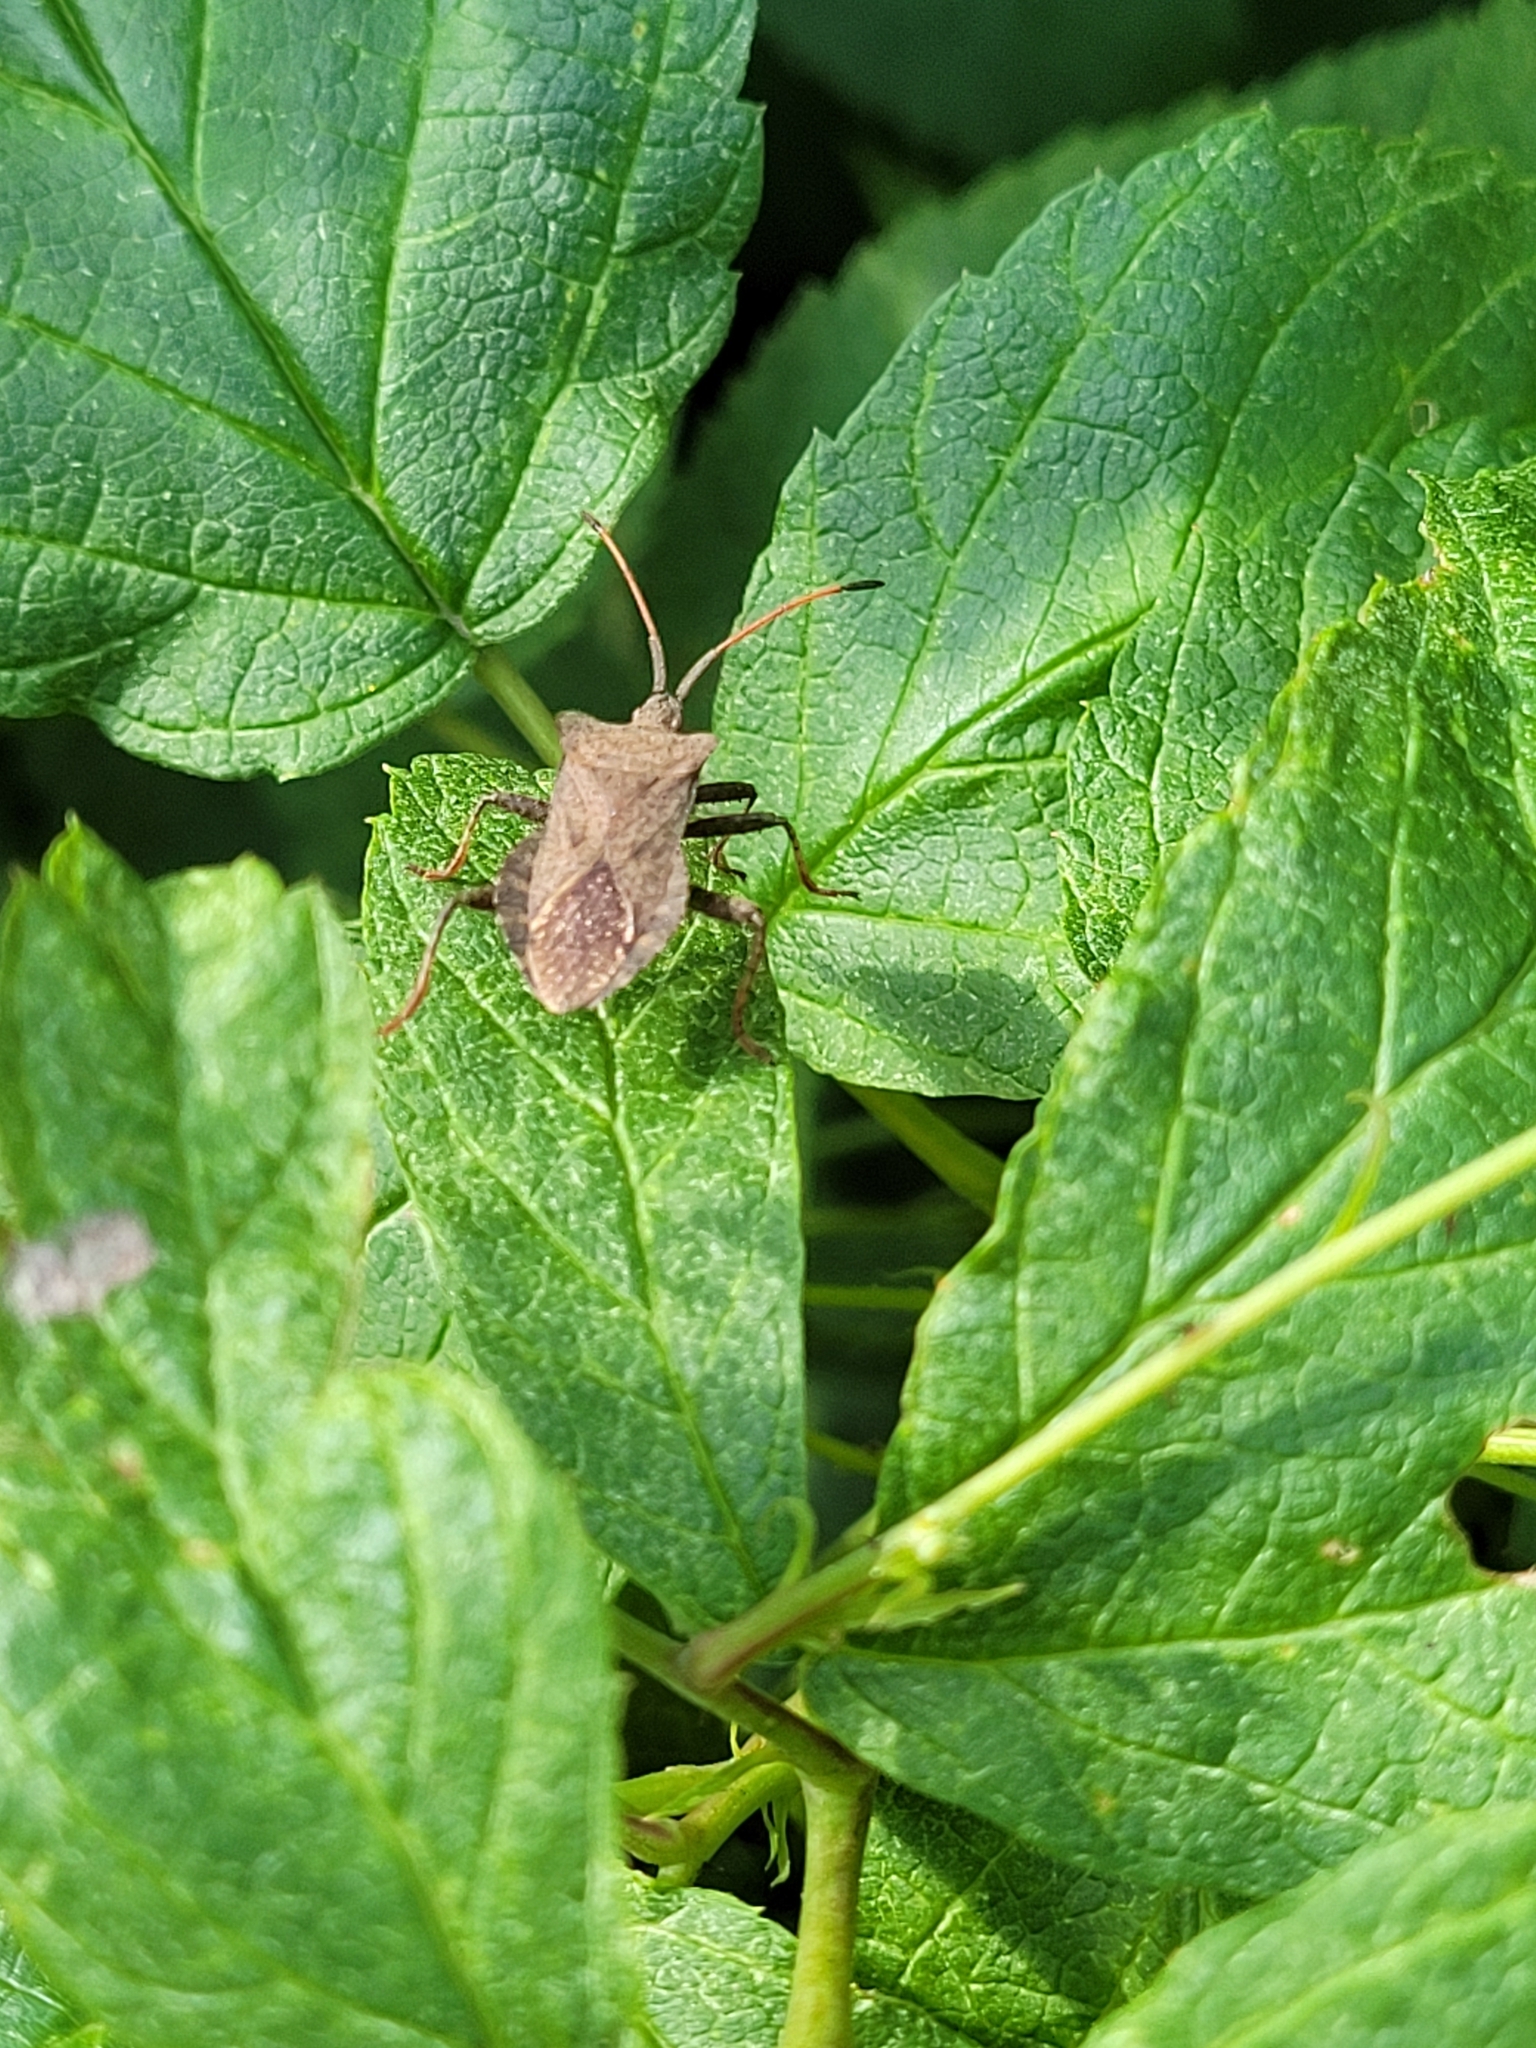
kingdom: Animalia
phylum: Arthropoda
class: Insecta
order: Hemiptera
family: Coreidae
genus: Coreus
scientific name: Coreus marginatus
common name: Dock bug
